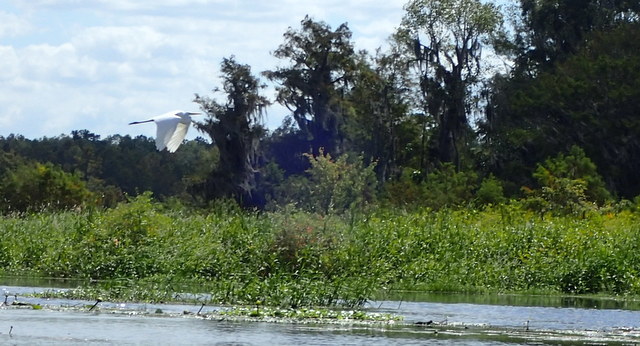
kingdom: Animalia
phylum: Chordata
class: Aves
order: Pelecaniformes
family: Ardeidae
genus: Ardea
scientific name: Ardea alba
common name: Great egret
